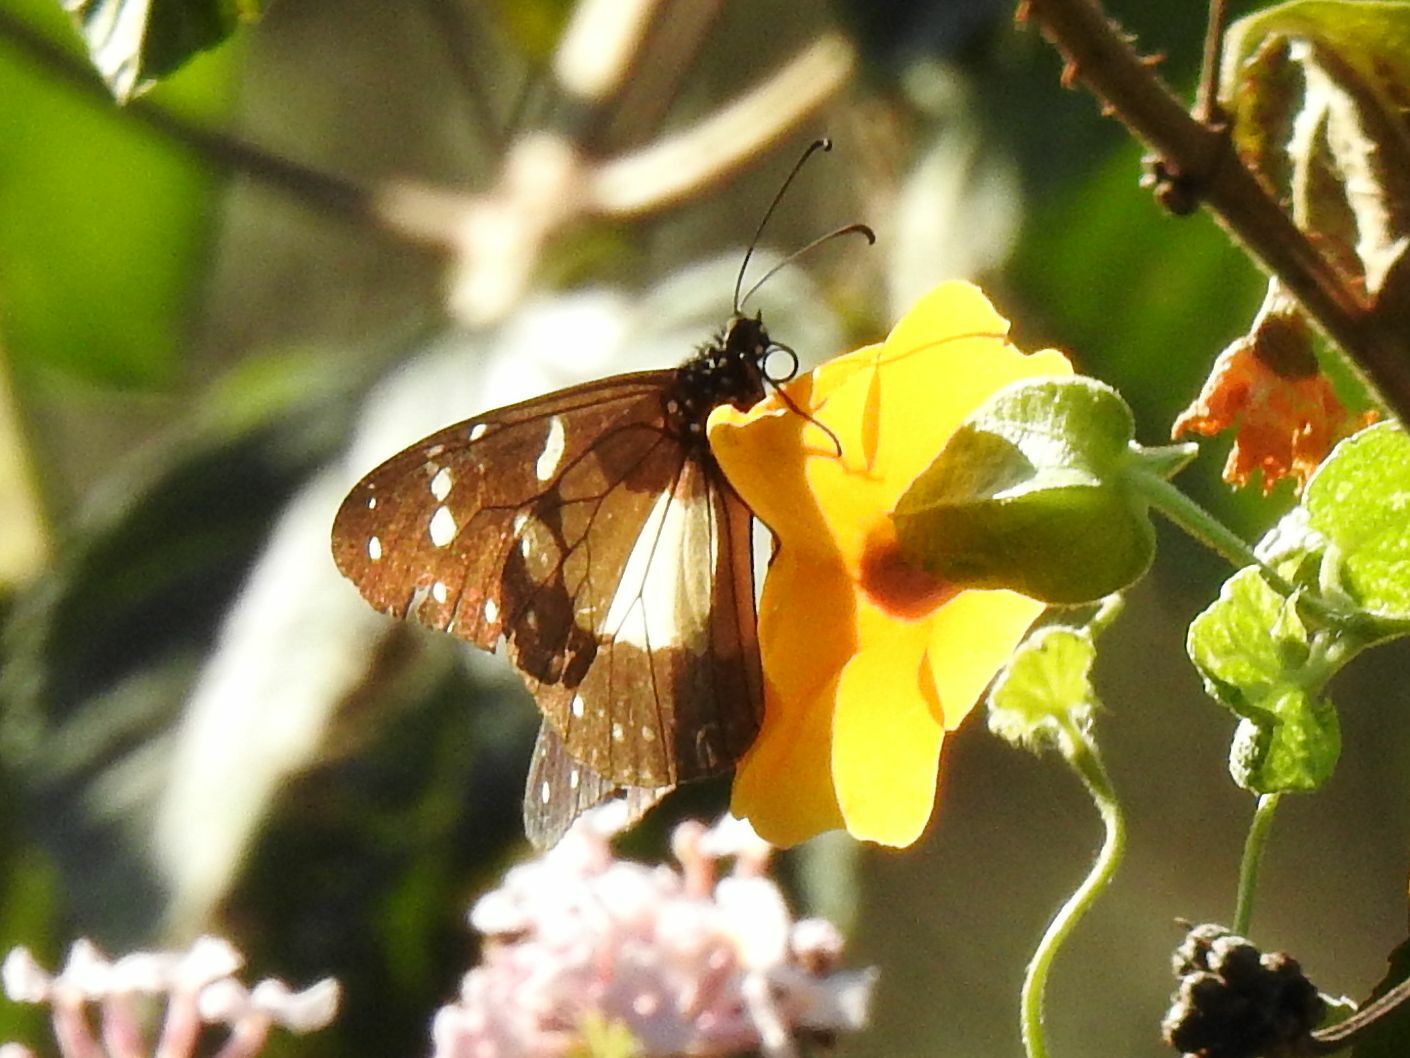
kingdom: Animalia
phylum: Arthropoda
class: Insecta
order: Lepidoptera
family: Nymphalidae
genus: Amauris
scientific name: Amauris echeria
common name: Chief
